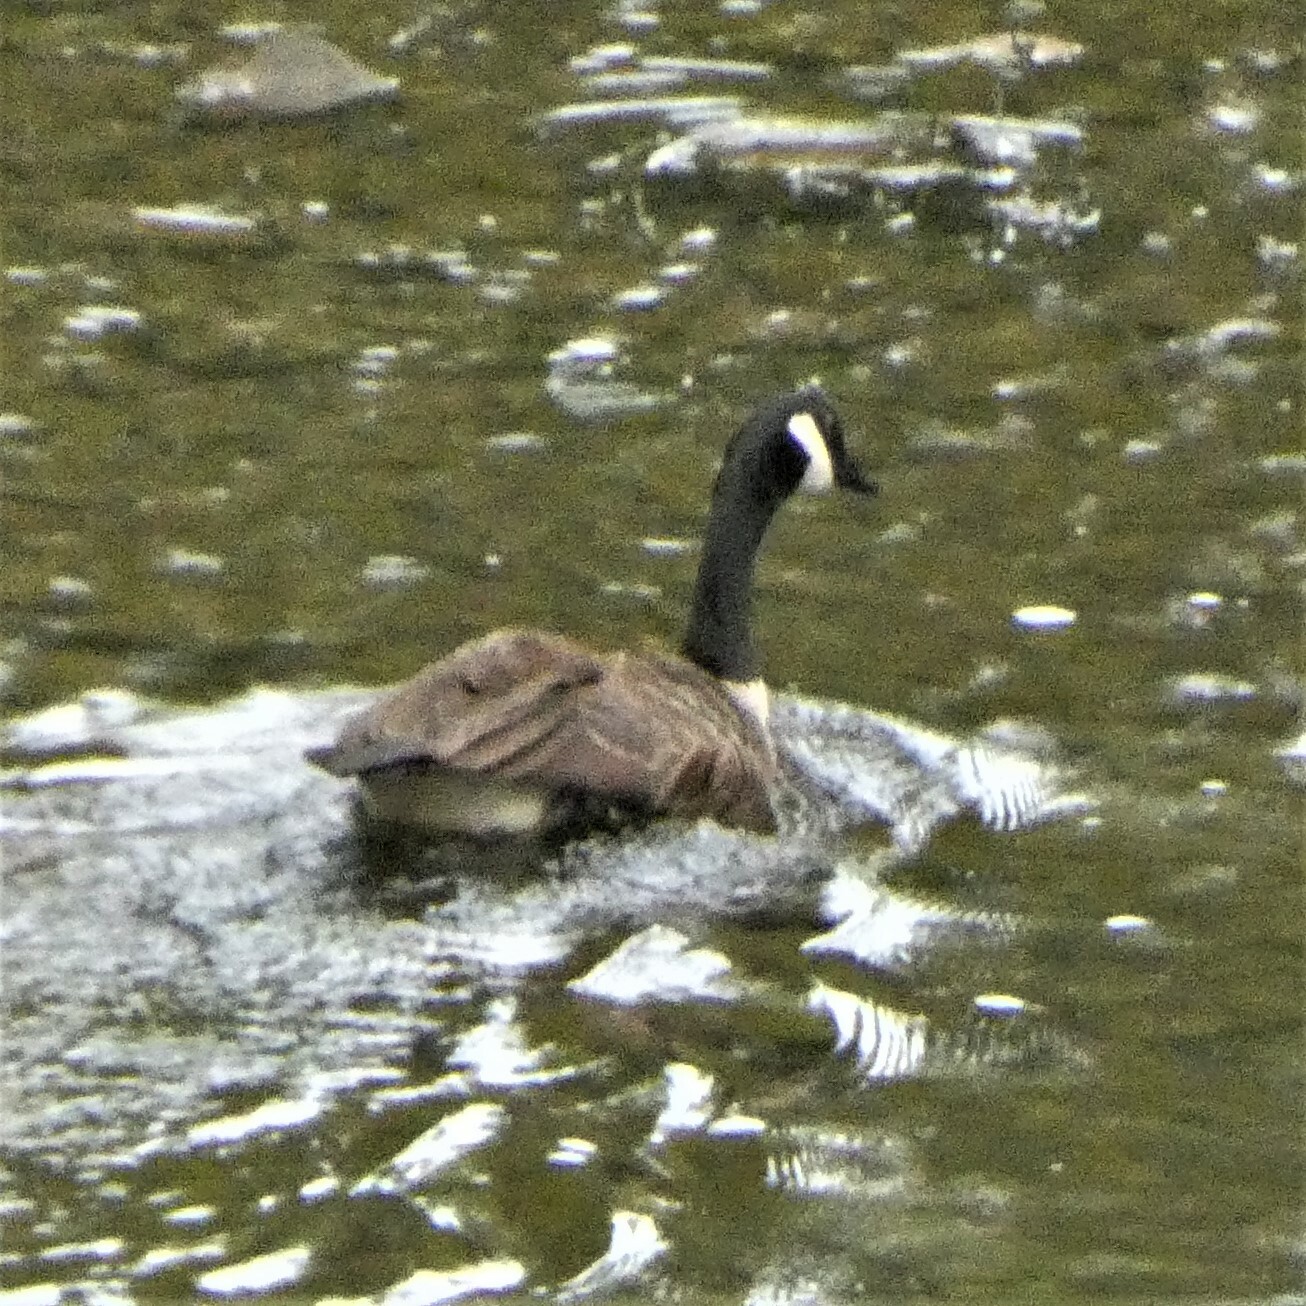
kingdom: Animalia
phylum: Chordata
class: Aves
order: Anseriformes
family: Anatidae
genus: Branta
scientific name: Branta canadensis
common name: Canada goose
